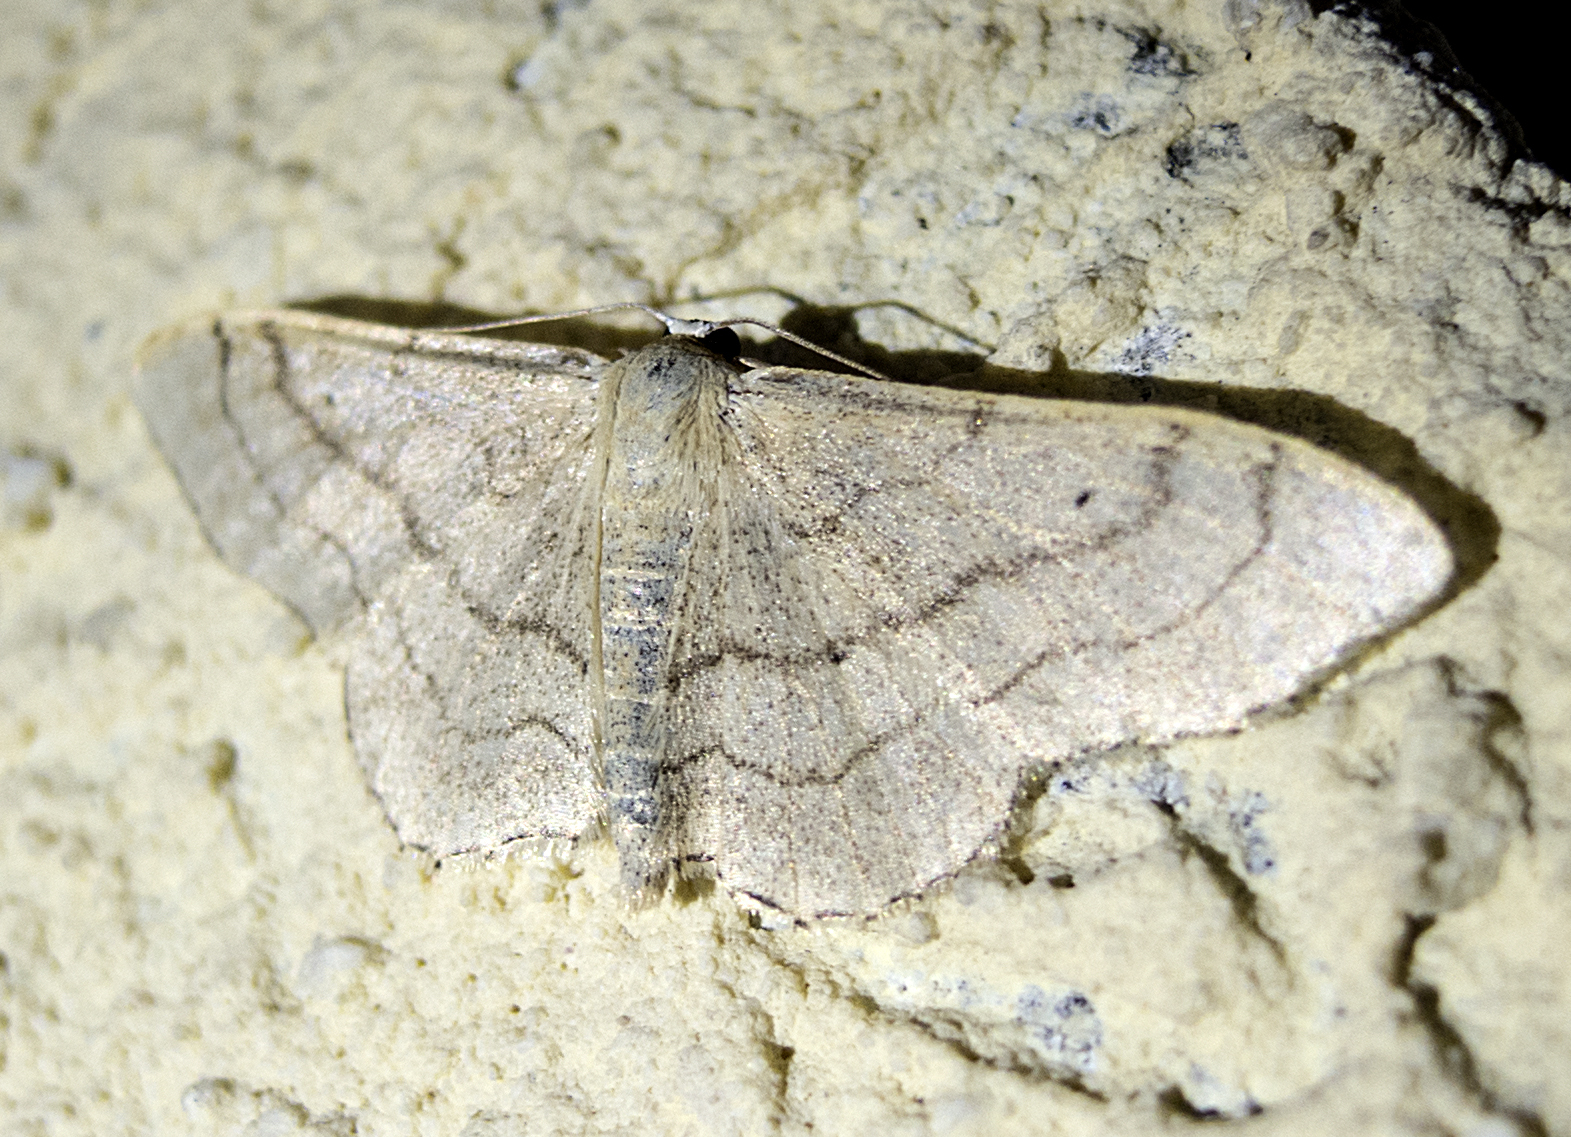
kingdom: Animalia
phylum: Arthropoda
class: Insecta
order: Lepidoptera
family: Geometridae
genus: Idaea
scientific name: Idaea aversata
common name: Riband wave
